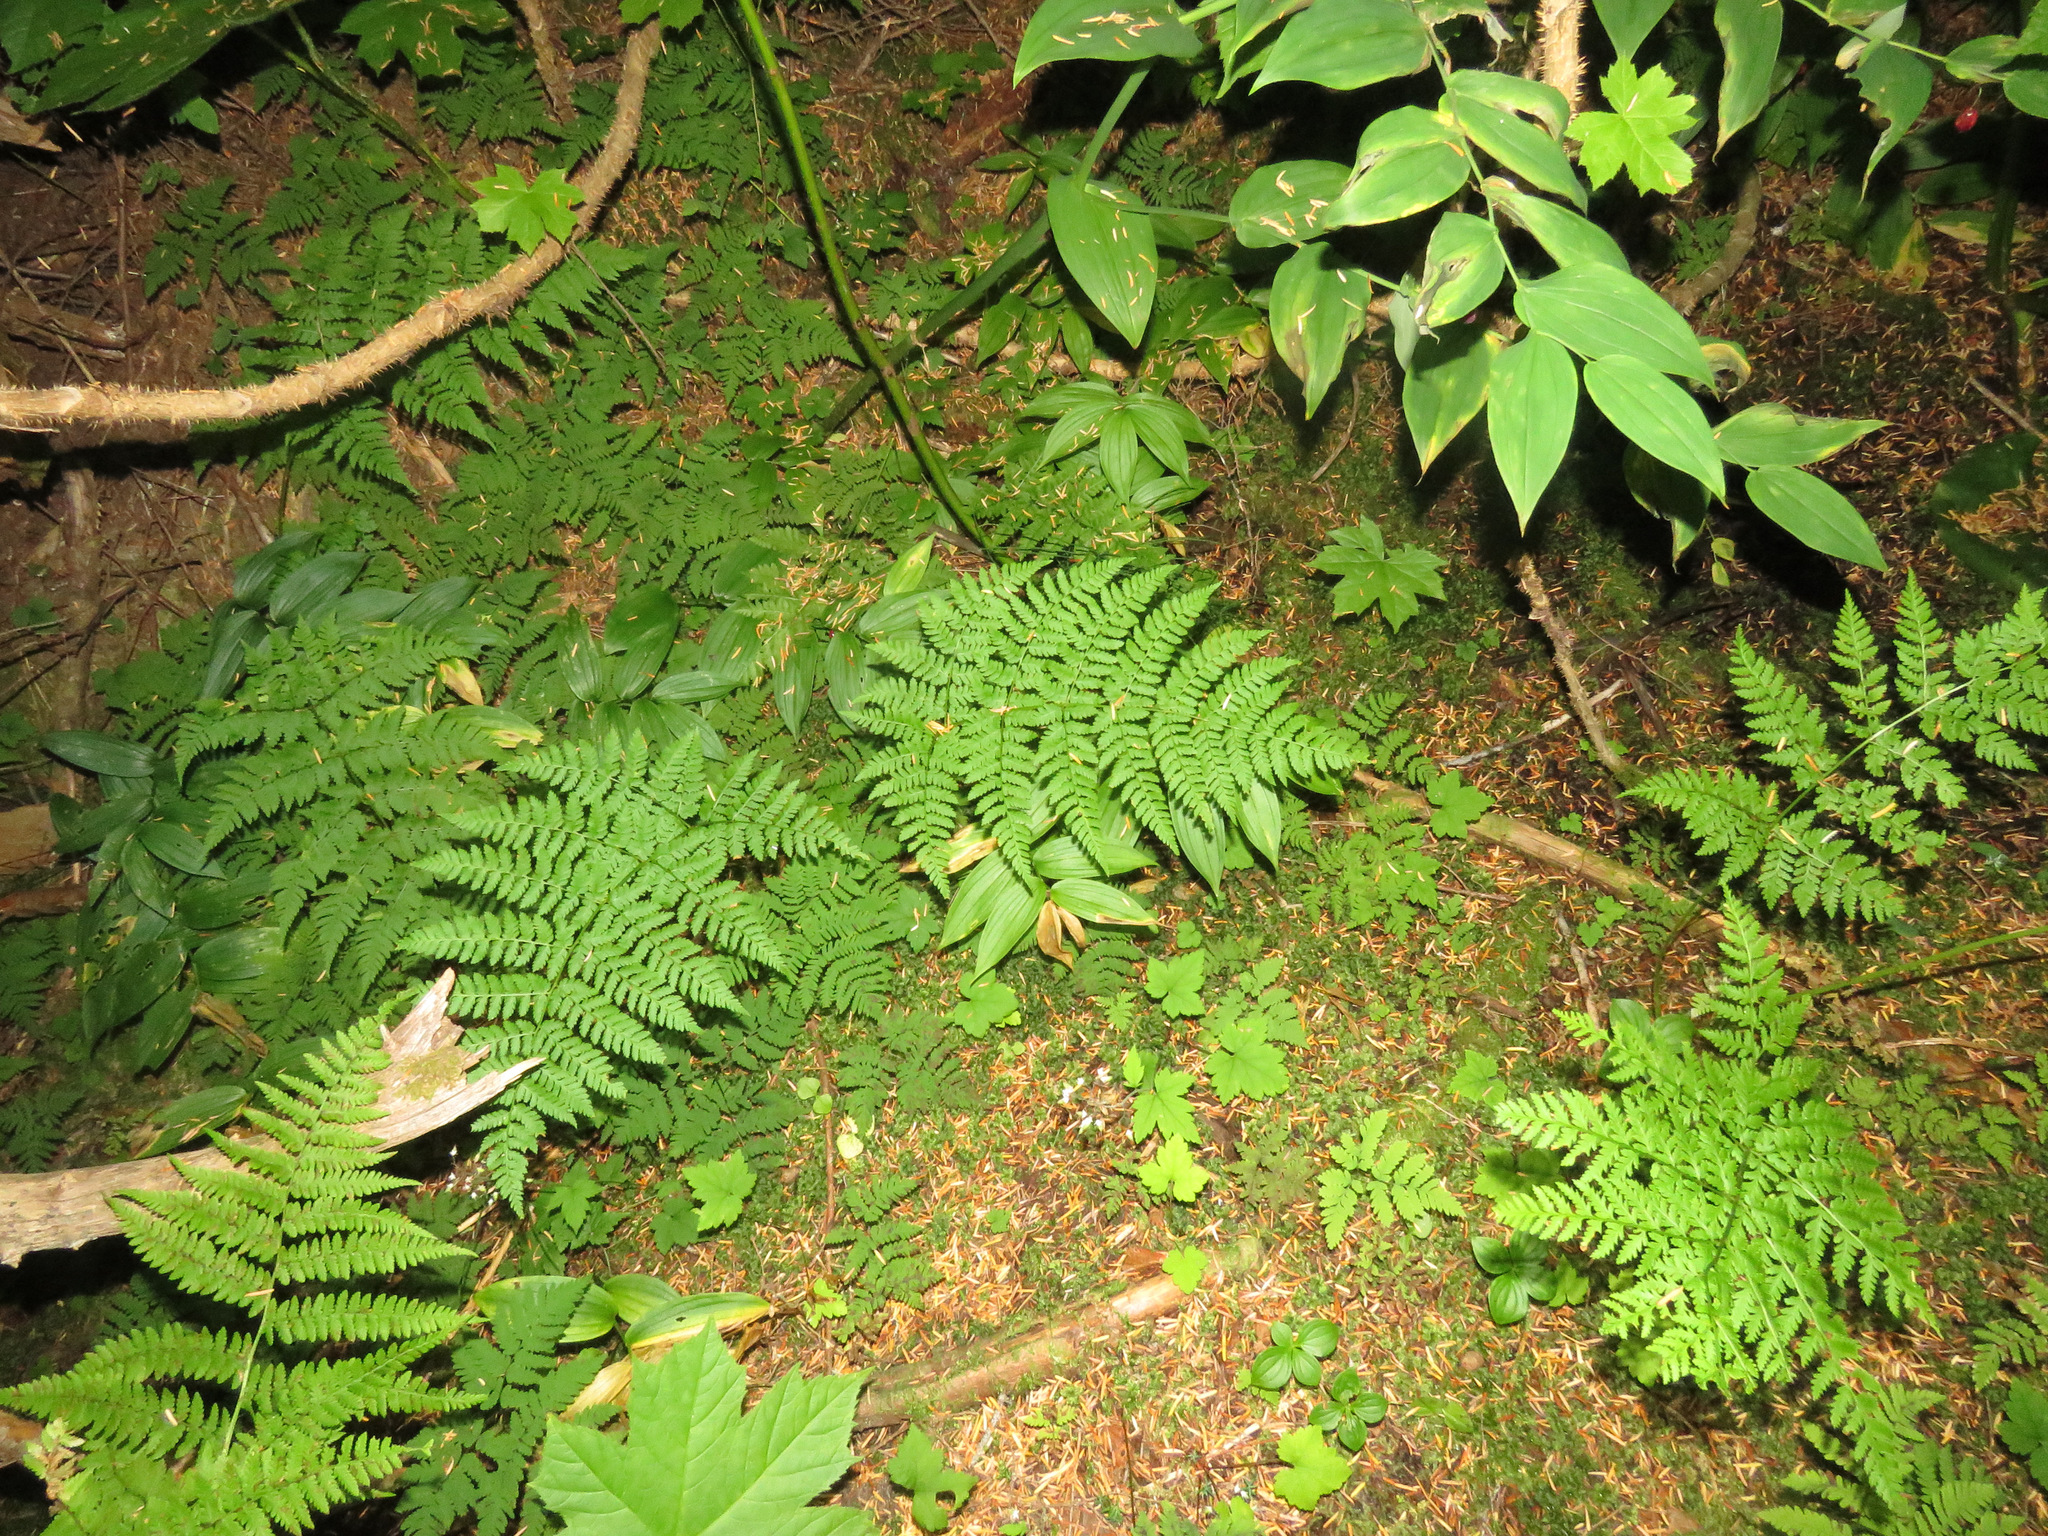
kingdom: Plantae
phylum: Tracheophyta
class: Polypodiopsida
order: Polypodiales
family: Dryopteridaceae
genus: Dryopteris
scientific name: Dryopteris expansa
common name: Northern buckler fern
